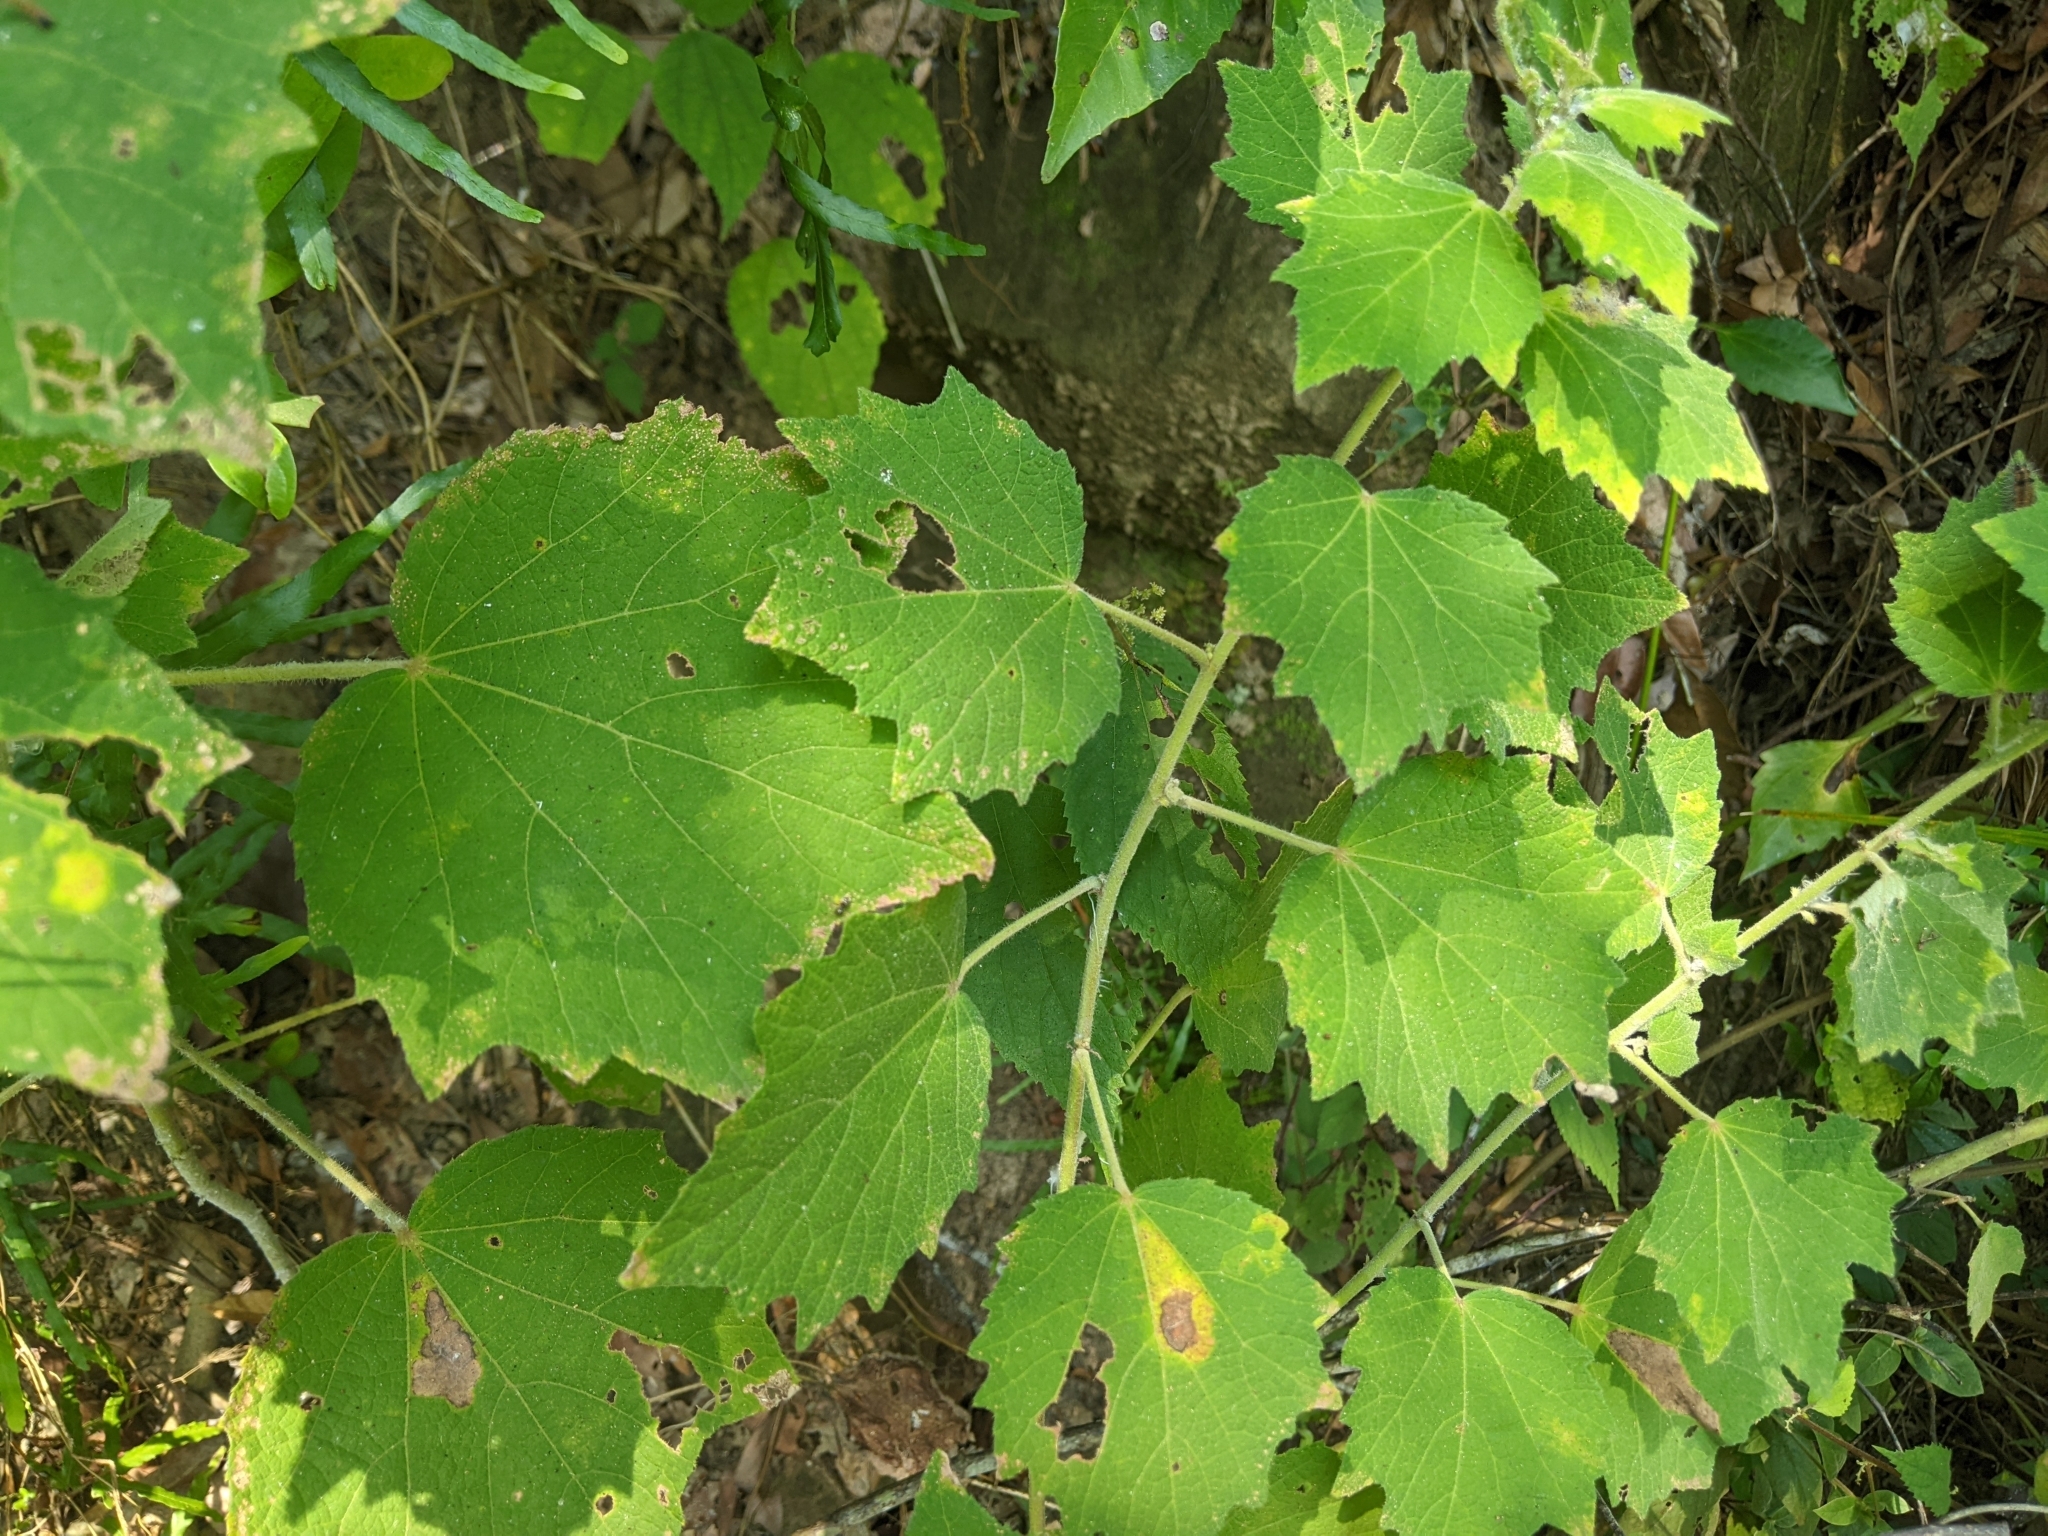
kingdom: Plantae
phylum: Tracheophyta
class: Magnoliopsida
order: Malvales
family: Malvaceae
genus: Urena
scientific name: Urena lobata
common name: Caesarweed
